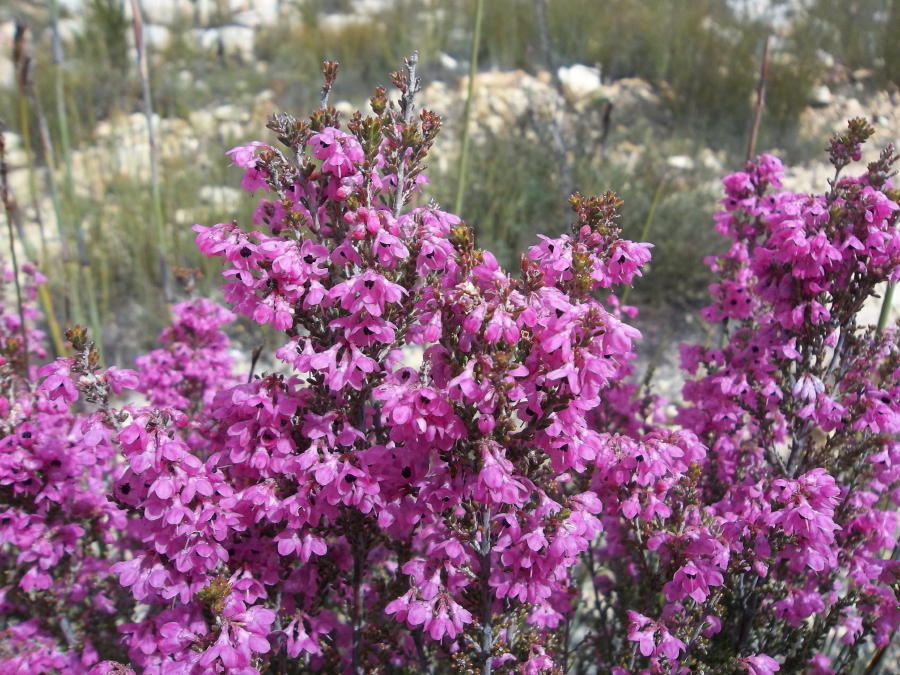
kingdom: Plantae
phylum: Tracheophyta
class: Magnoliopsida
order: Ericales
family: Ericaceae
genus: Erica
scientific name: Erica melanthera
